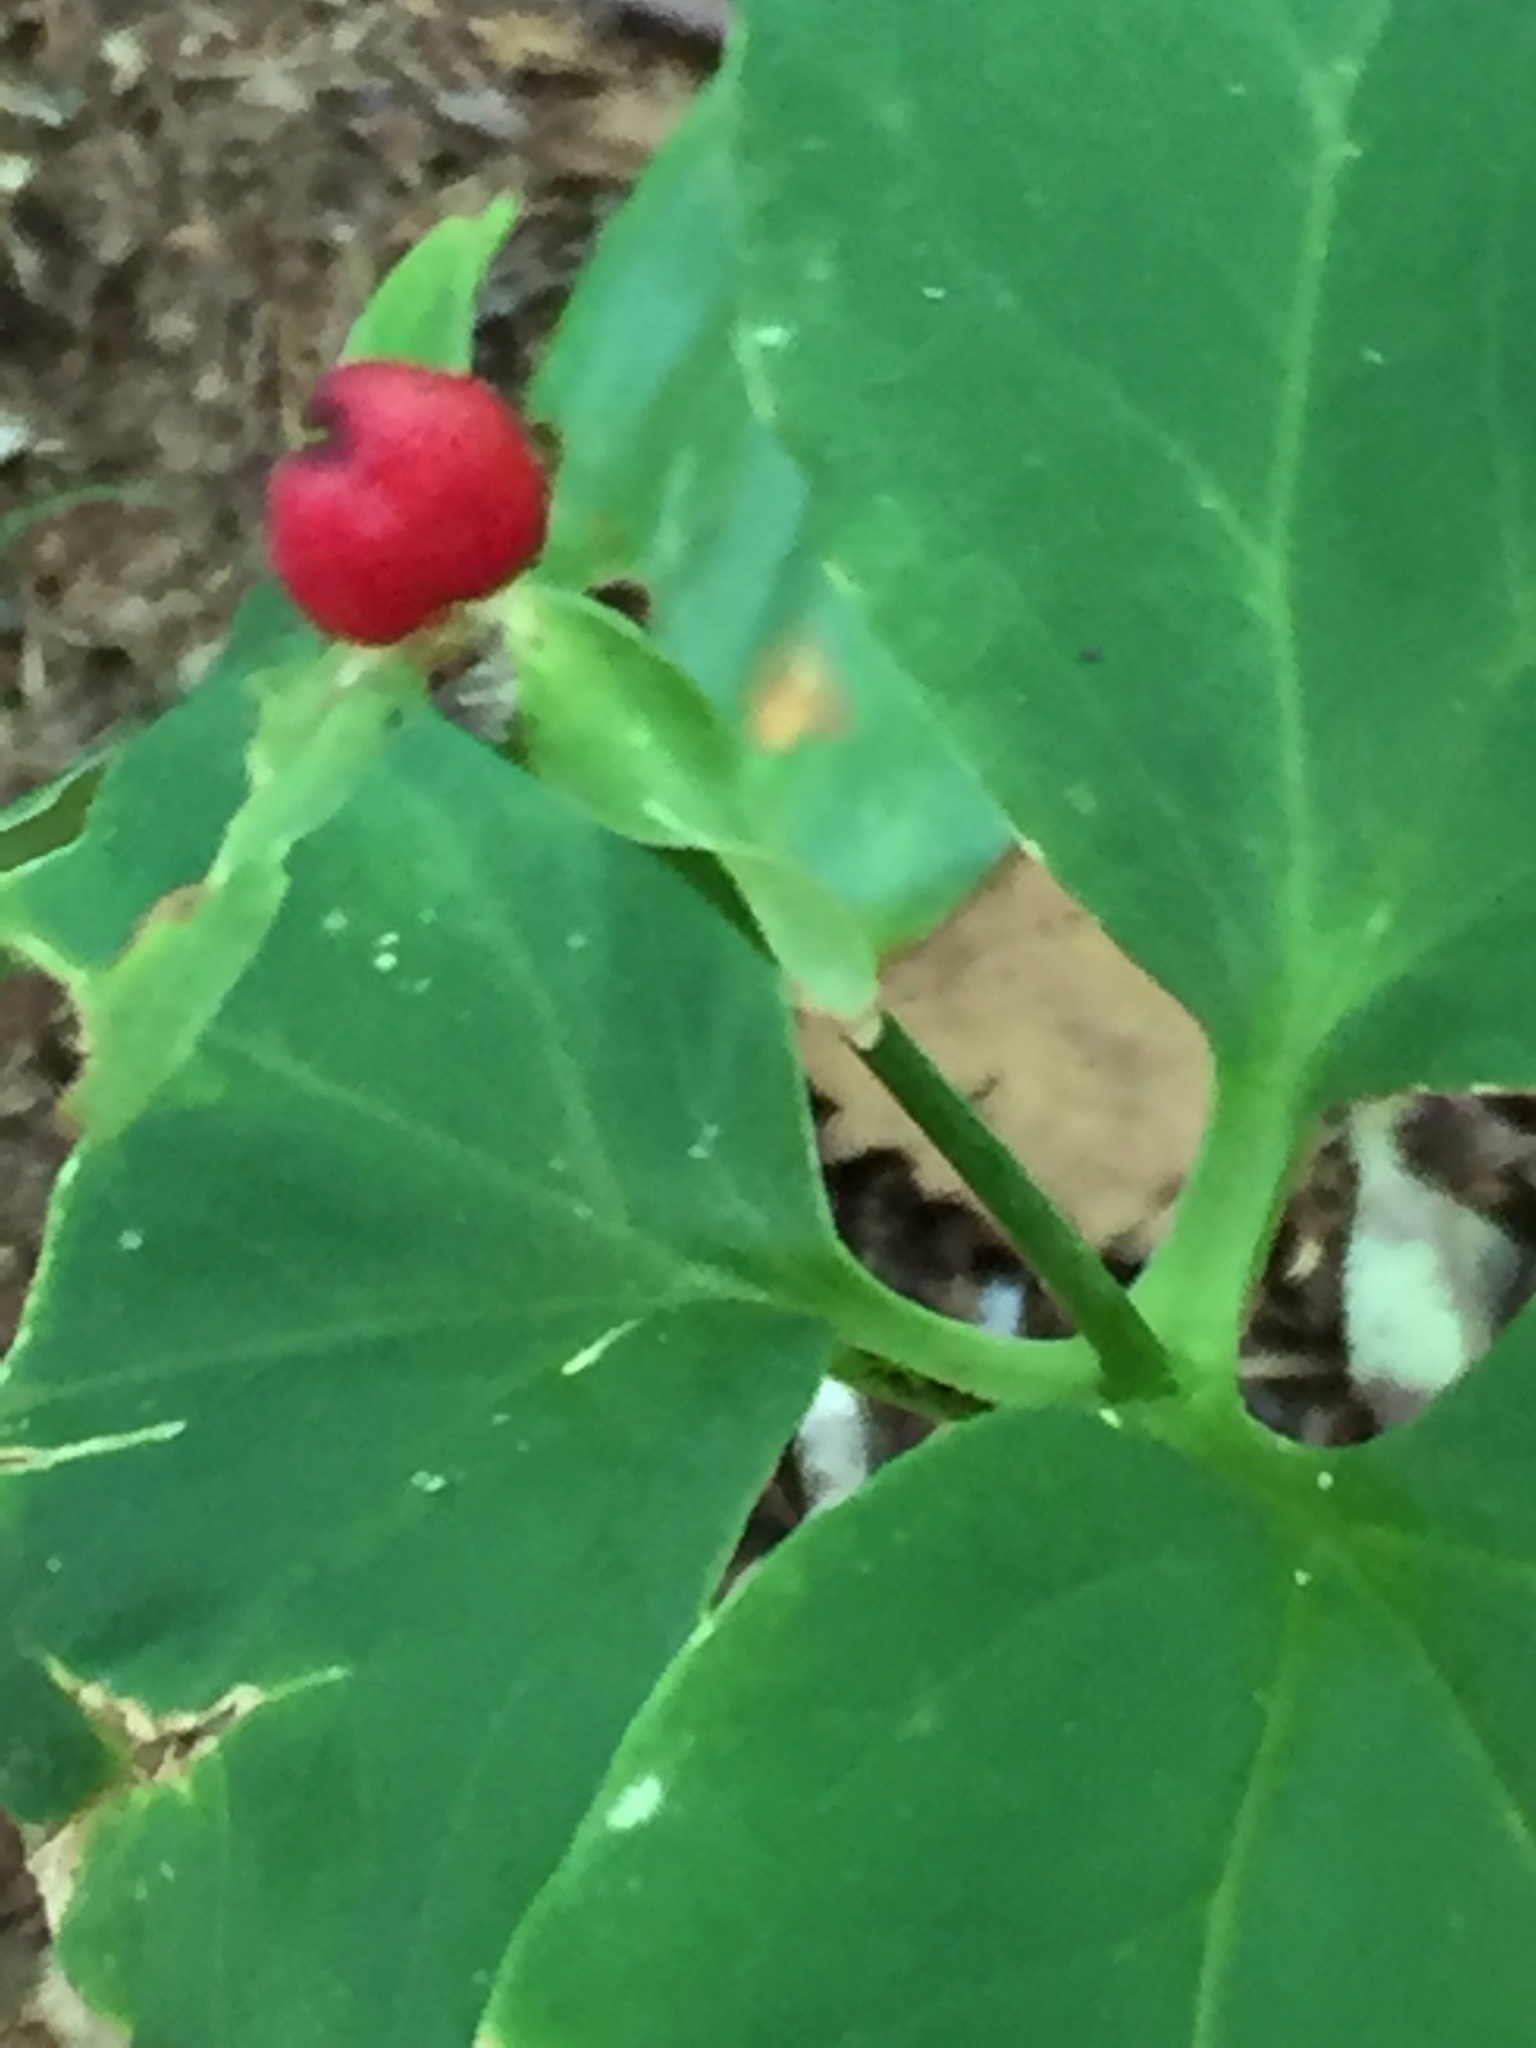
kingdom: Plantae
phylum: Tracheophyta
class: Liliopsida
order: Liliales
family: Melanthiaceae
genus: Trillium
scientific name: Trillium undulatum
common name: Paint trillium
